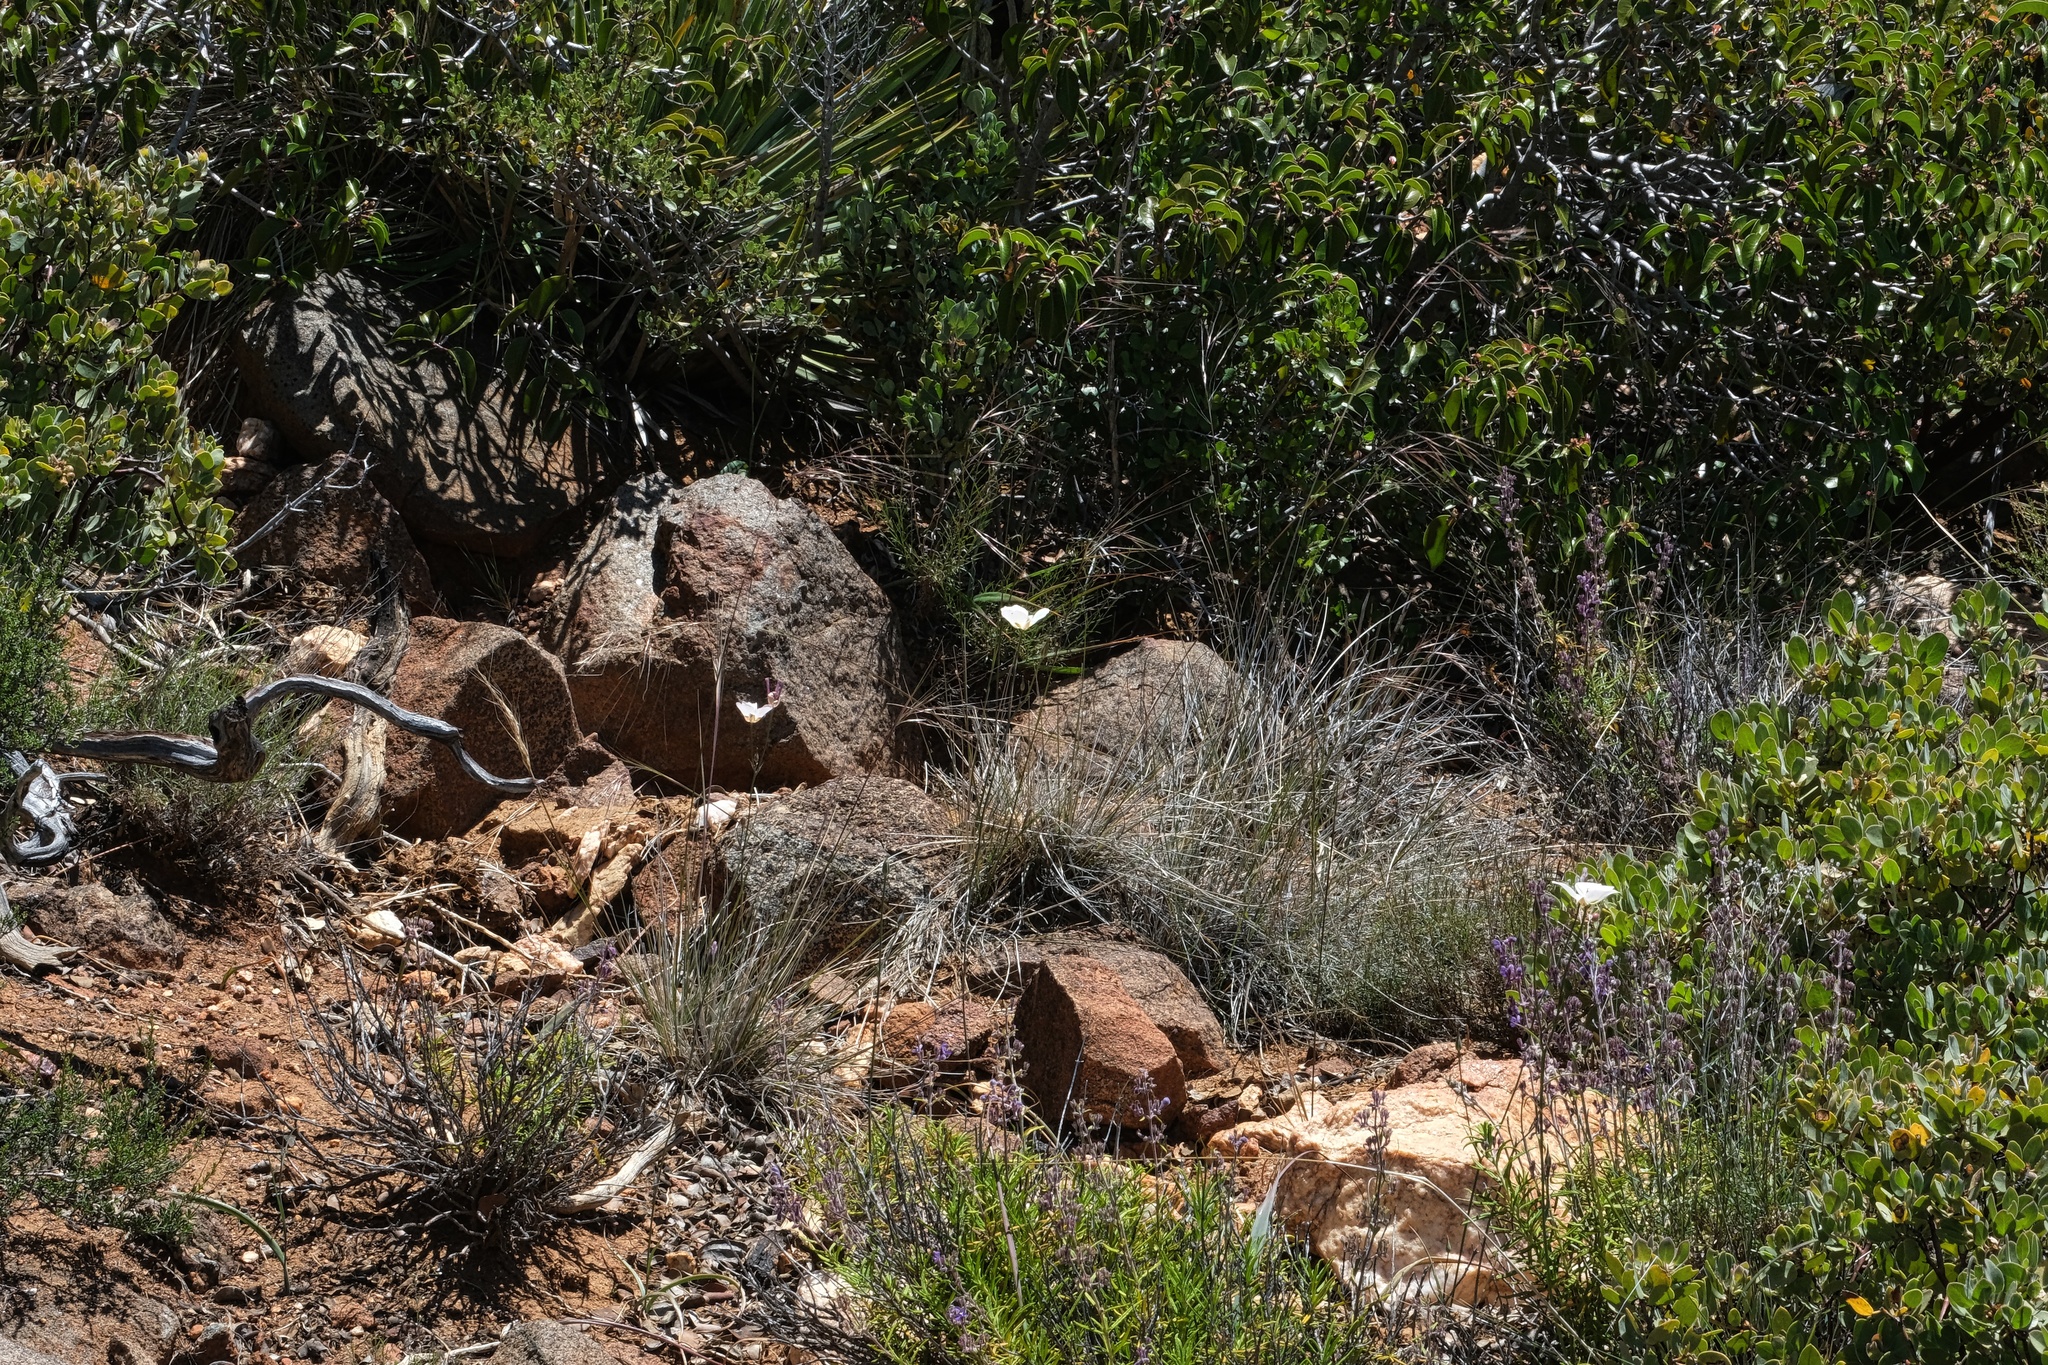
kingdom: Plantae
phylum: Tracheophyta
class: Liliopsida
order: Liliales
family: Liliaceae
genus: Calochortus
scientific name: Calochortus dunnii
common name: Dunn's mariposa-lily
